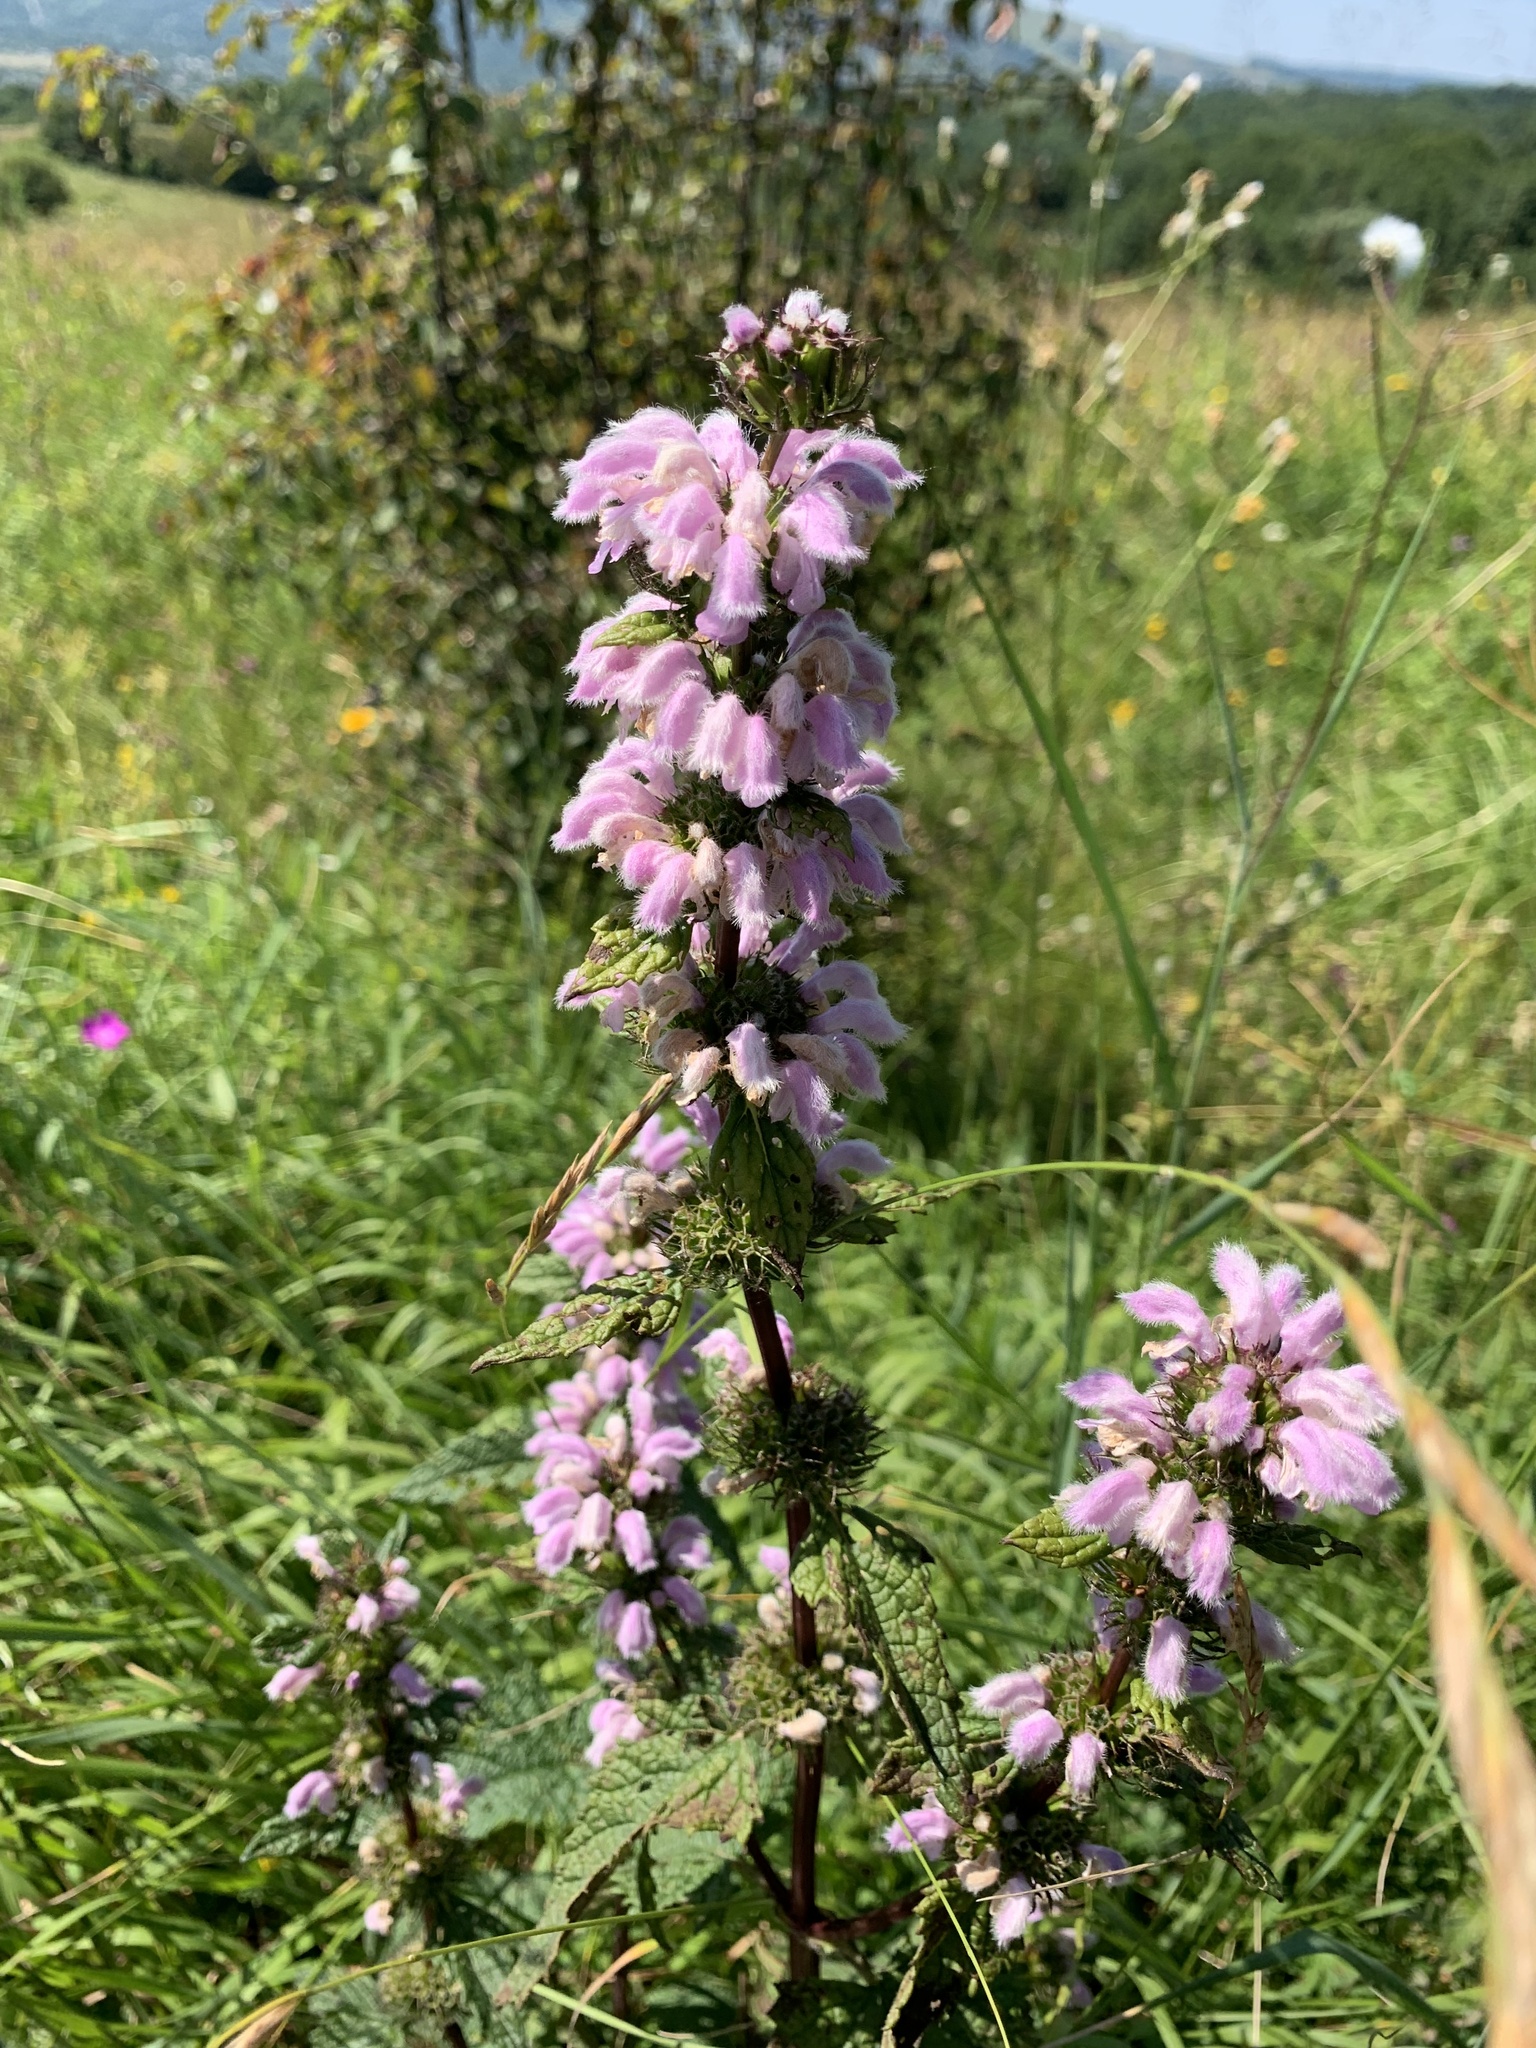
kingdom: Plantae
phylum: Tracheophyta
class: Magnoliopsida
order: Lamiales
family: Lamiaceae
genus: Phlomoides
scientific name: Phlomoides tuberosa
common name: Tuberous jerusalem sage
